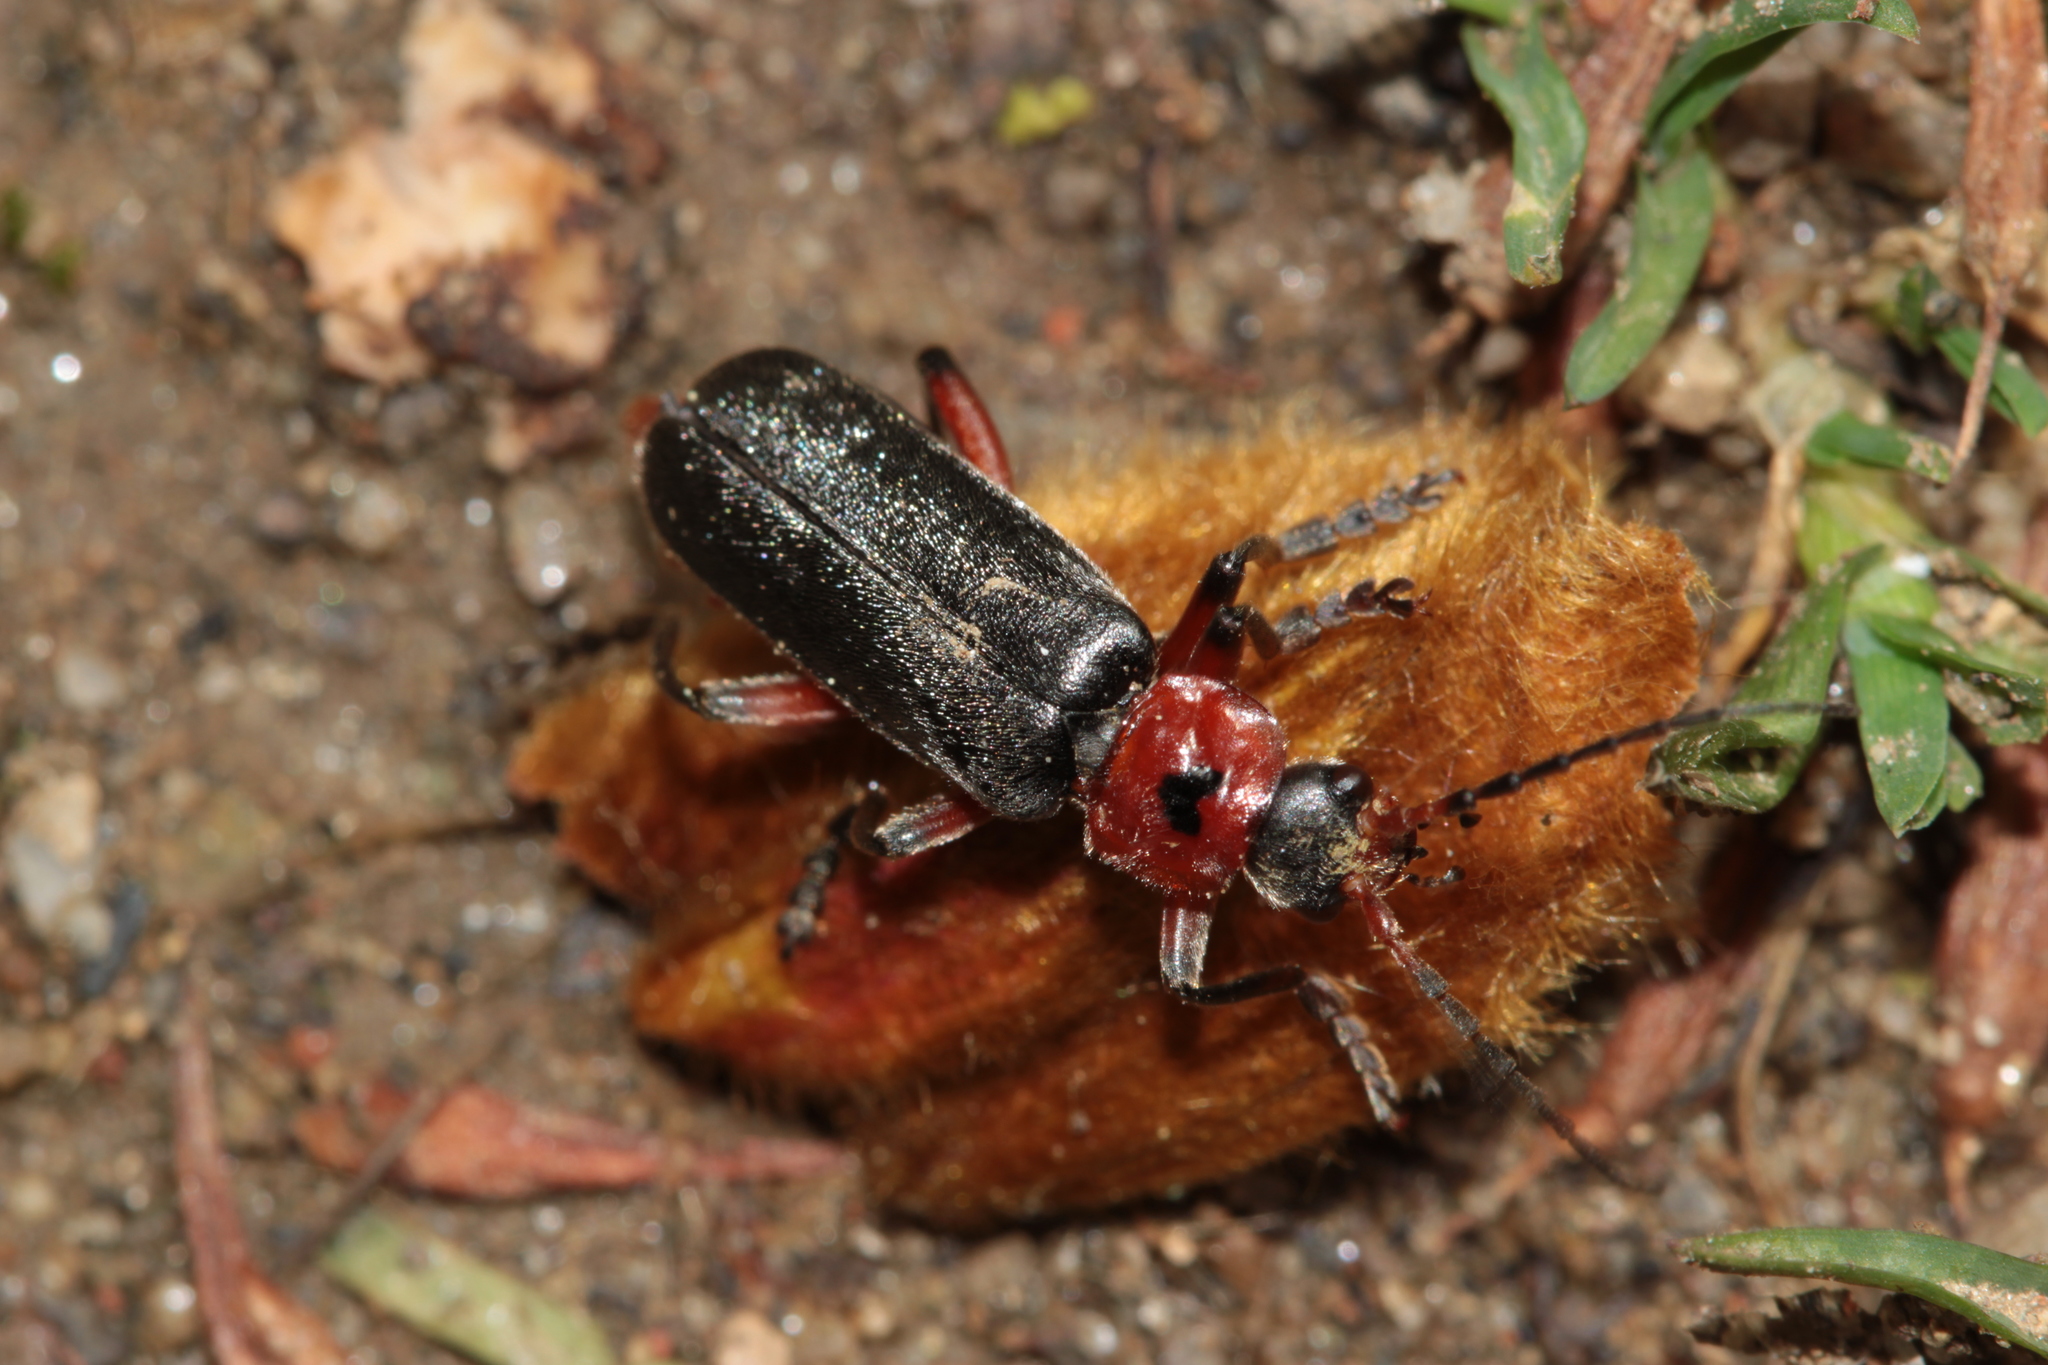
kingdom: Animalia
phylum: Arthropoda
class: Insecta
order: Coleoptera
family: Cantharidae
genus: Cantharis
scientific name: Cantharis rustica
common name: Soldier beetle
